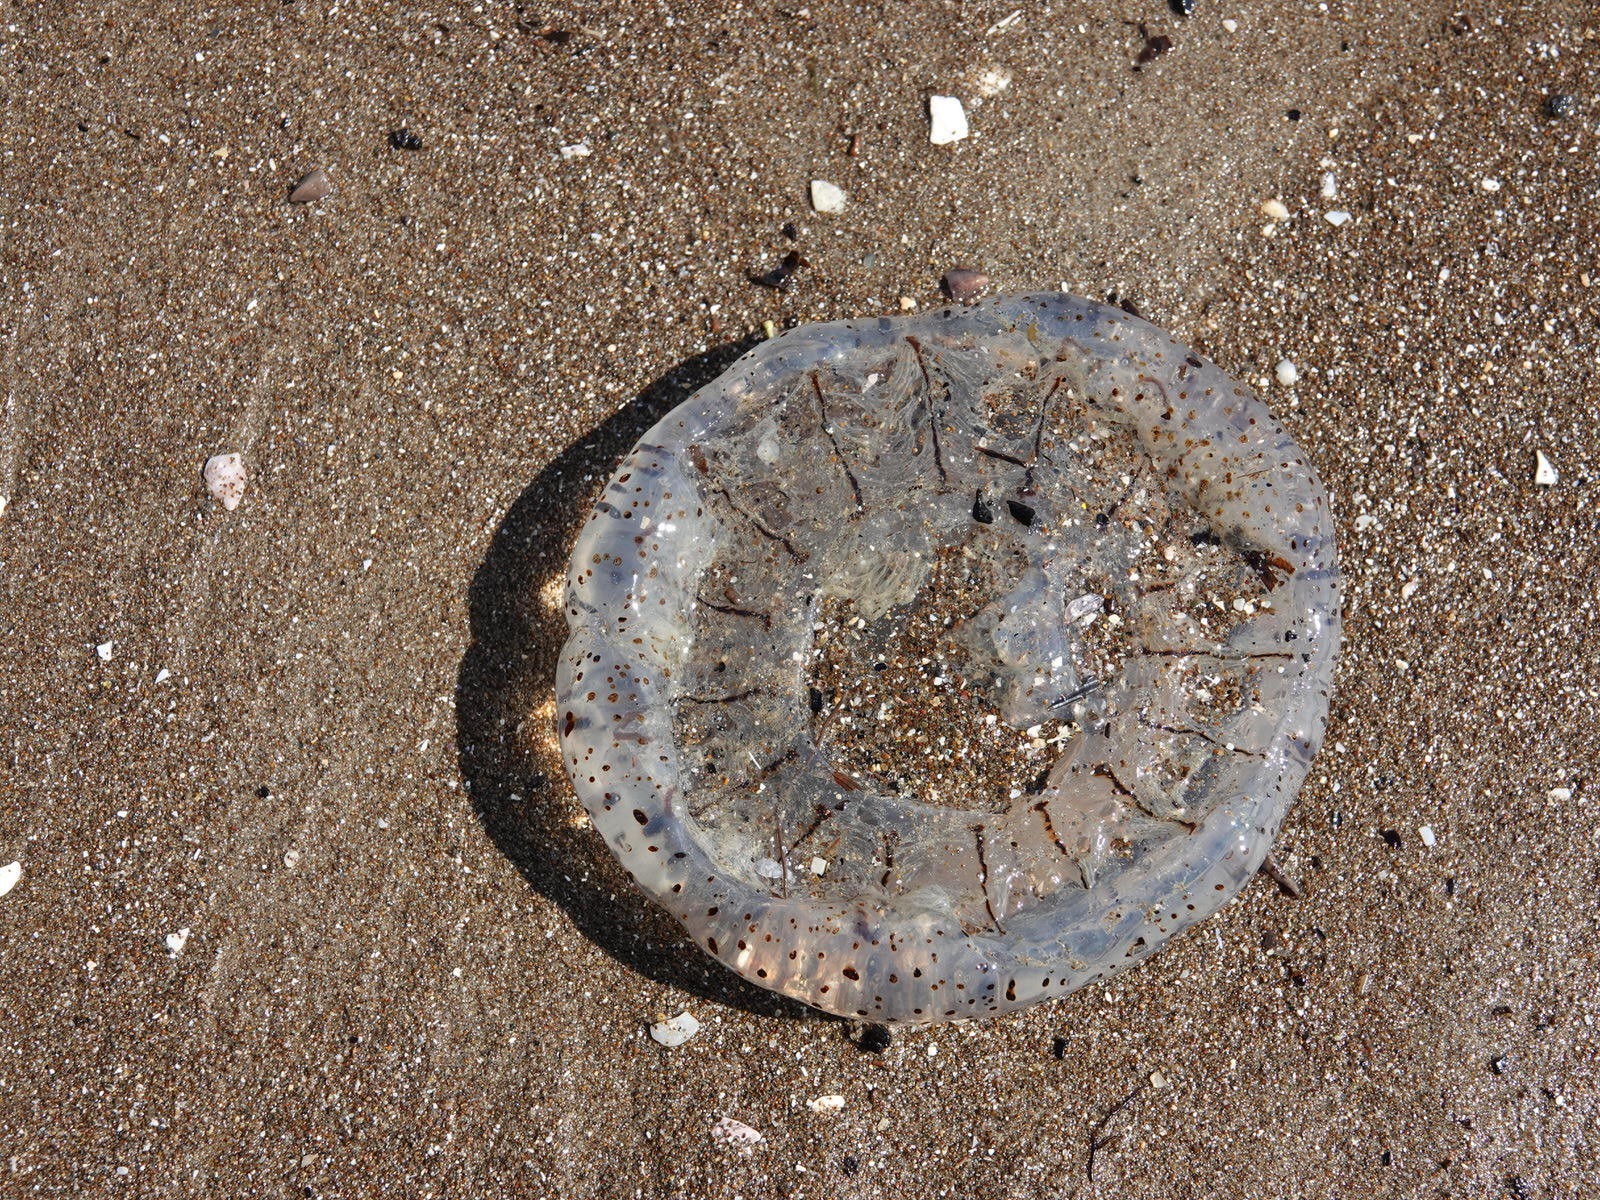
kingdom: Animalia
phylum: Cnidaria
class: Scyphozoa
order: Semaeostomeae
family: Cyaneidae
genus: Desmonema
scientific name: Desmonema gaudichaudi
